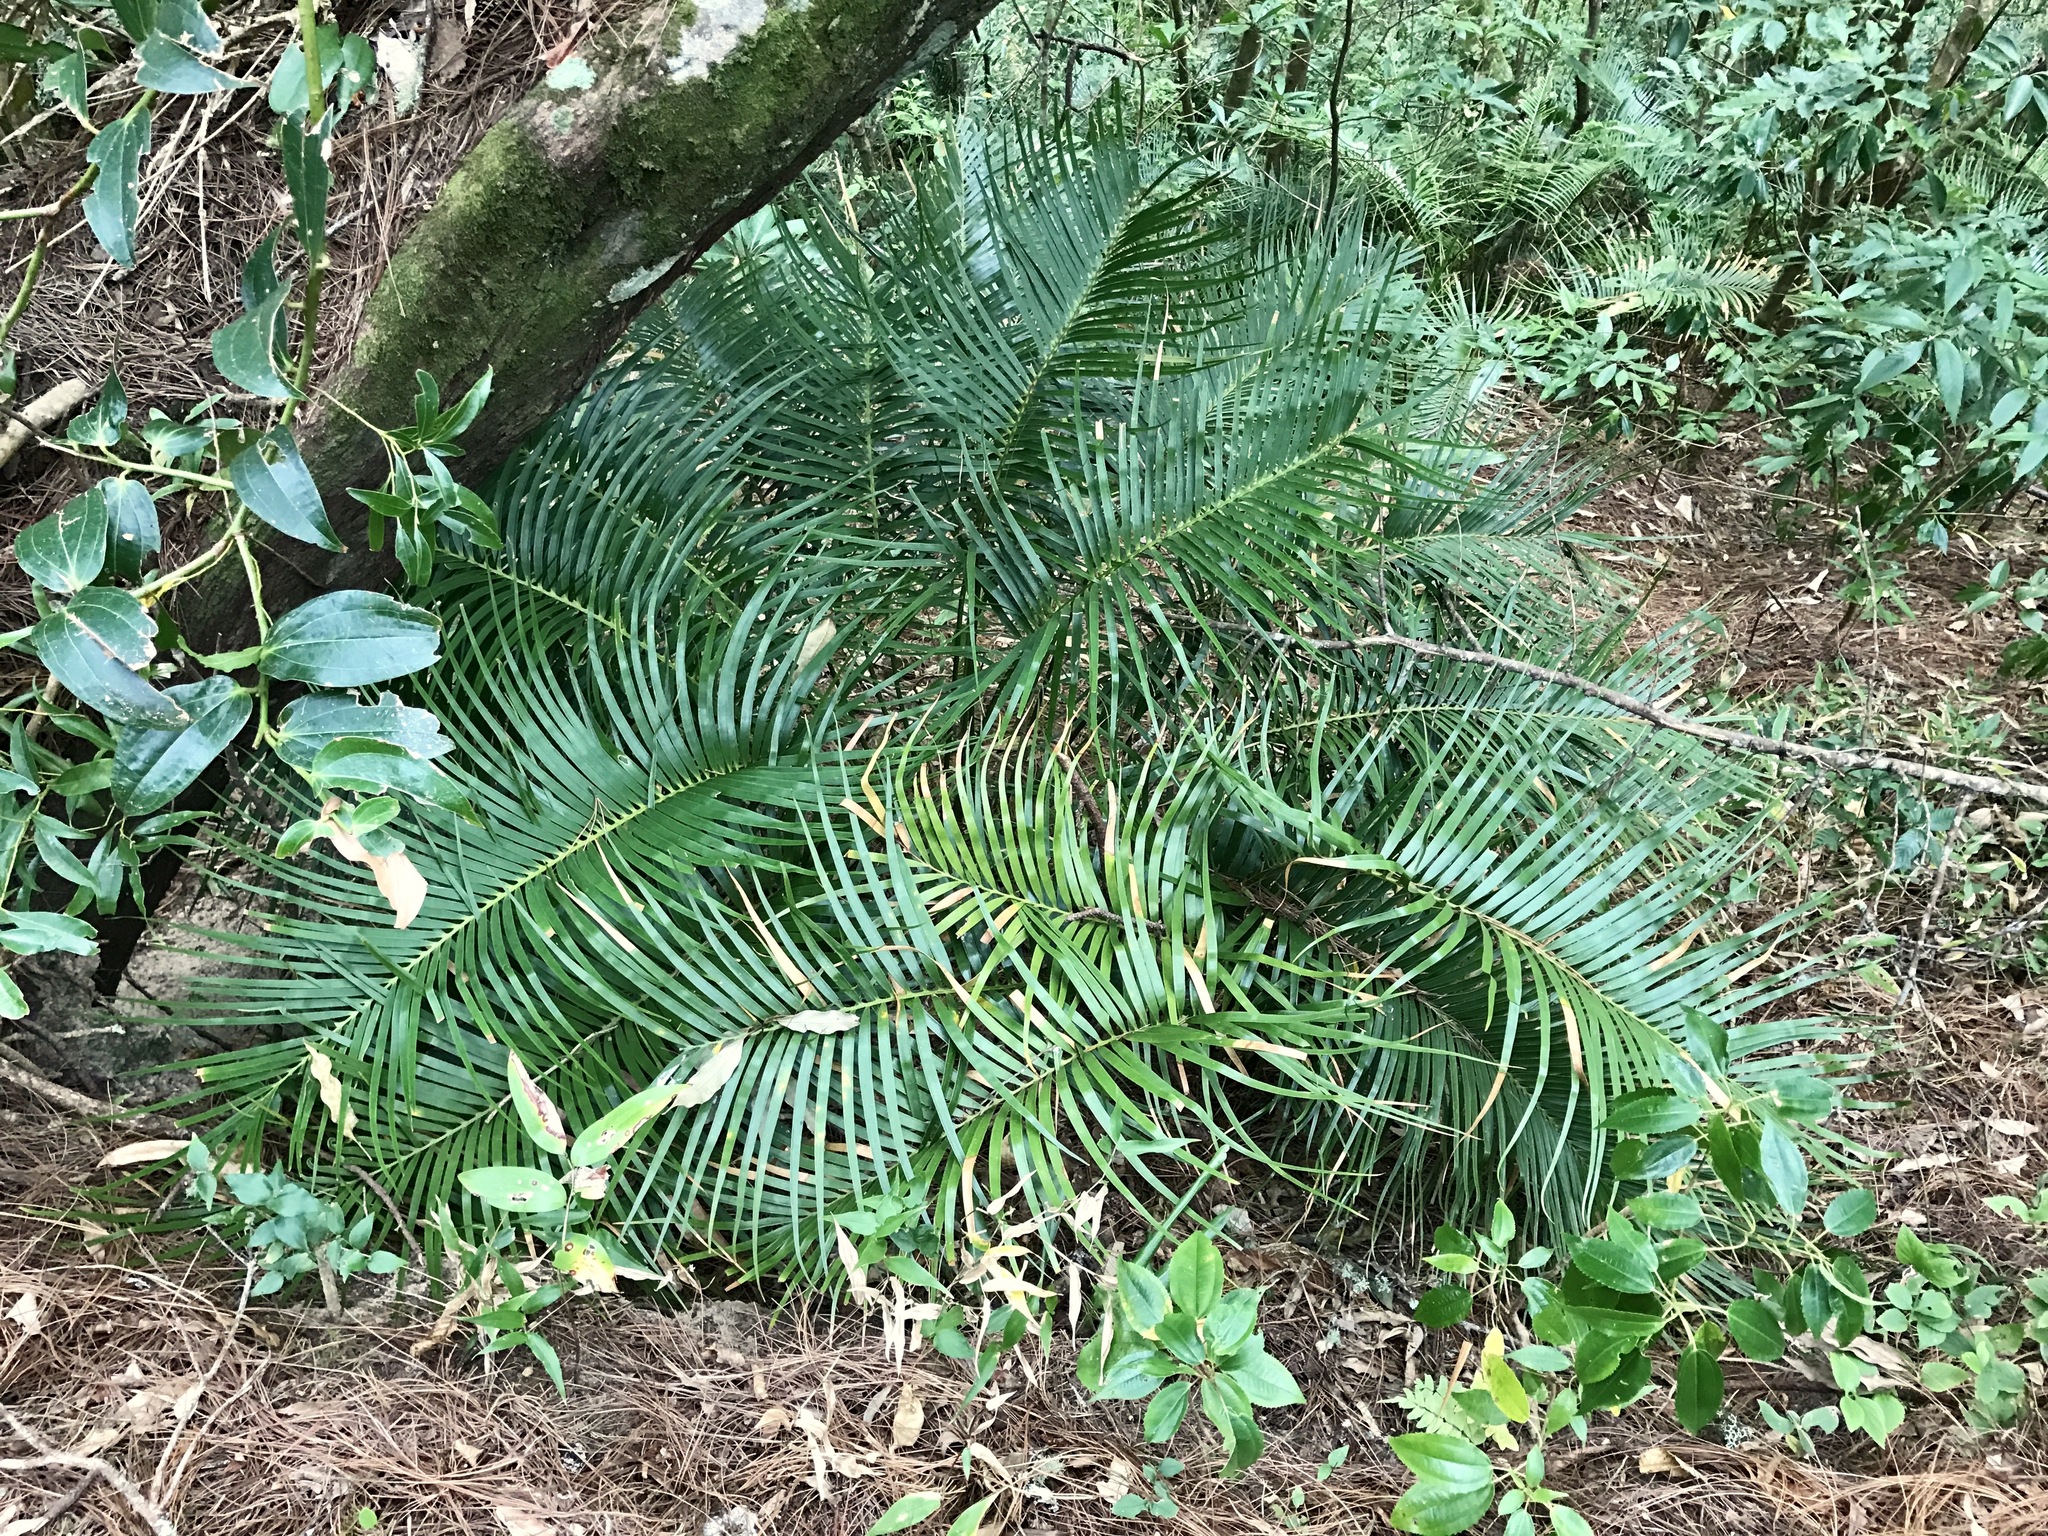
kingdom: Plantae
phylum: Tracheophyta
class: Cycadopsida
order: Cycadales
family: Zamiaceae
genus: Ceratozamia
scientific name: Ceratozamia matudae
